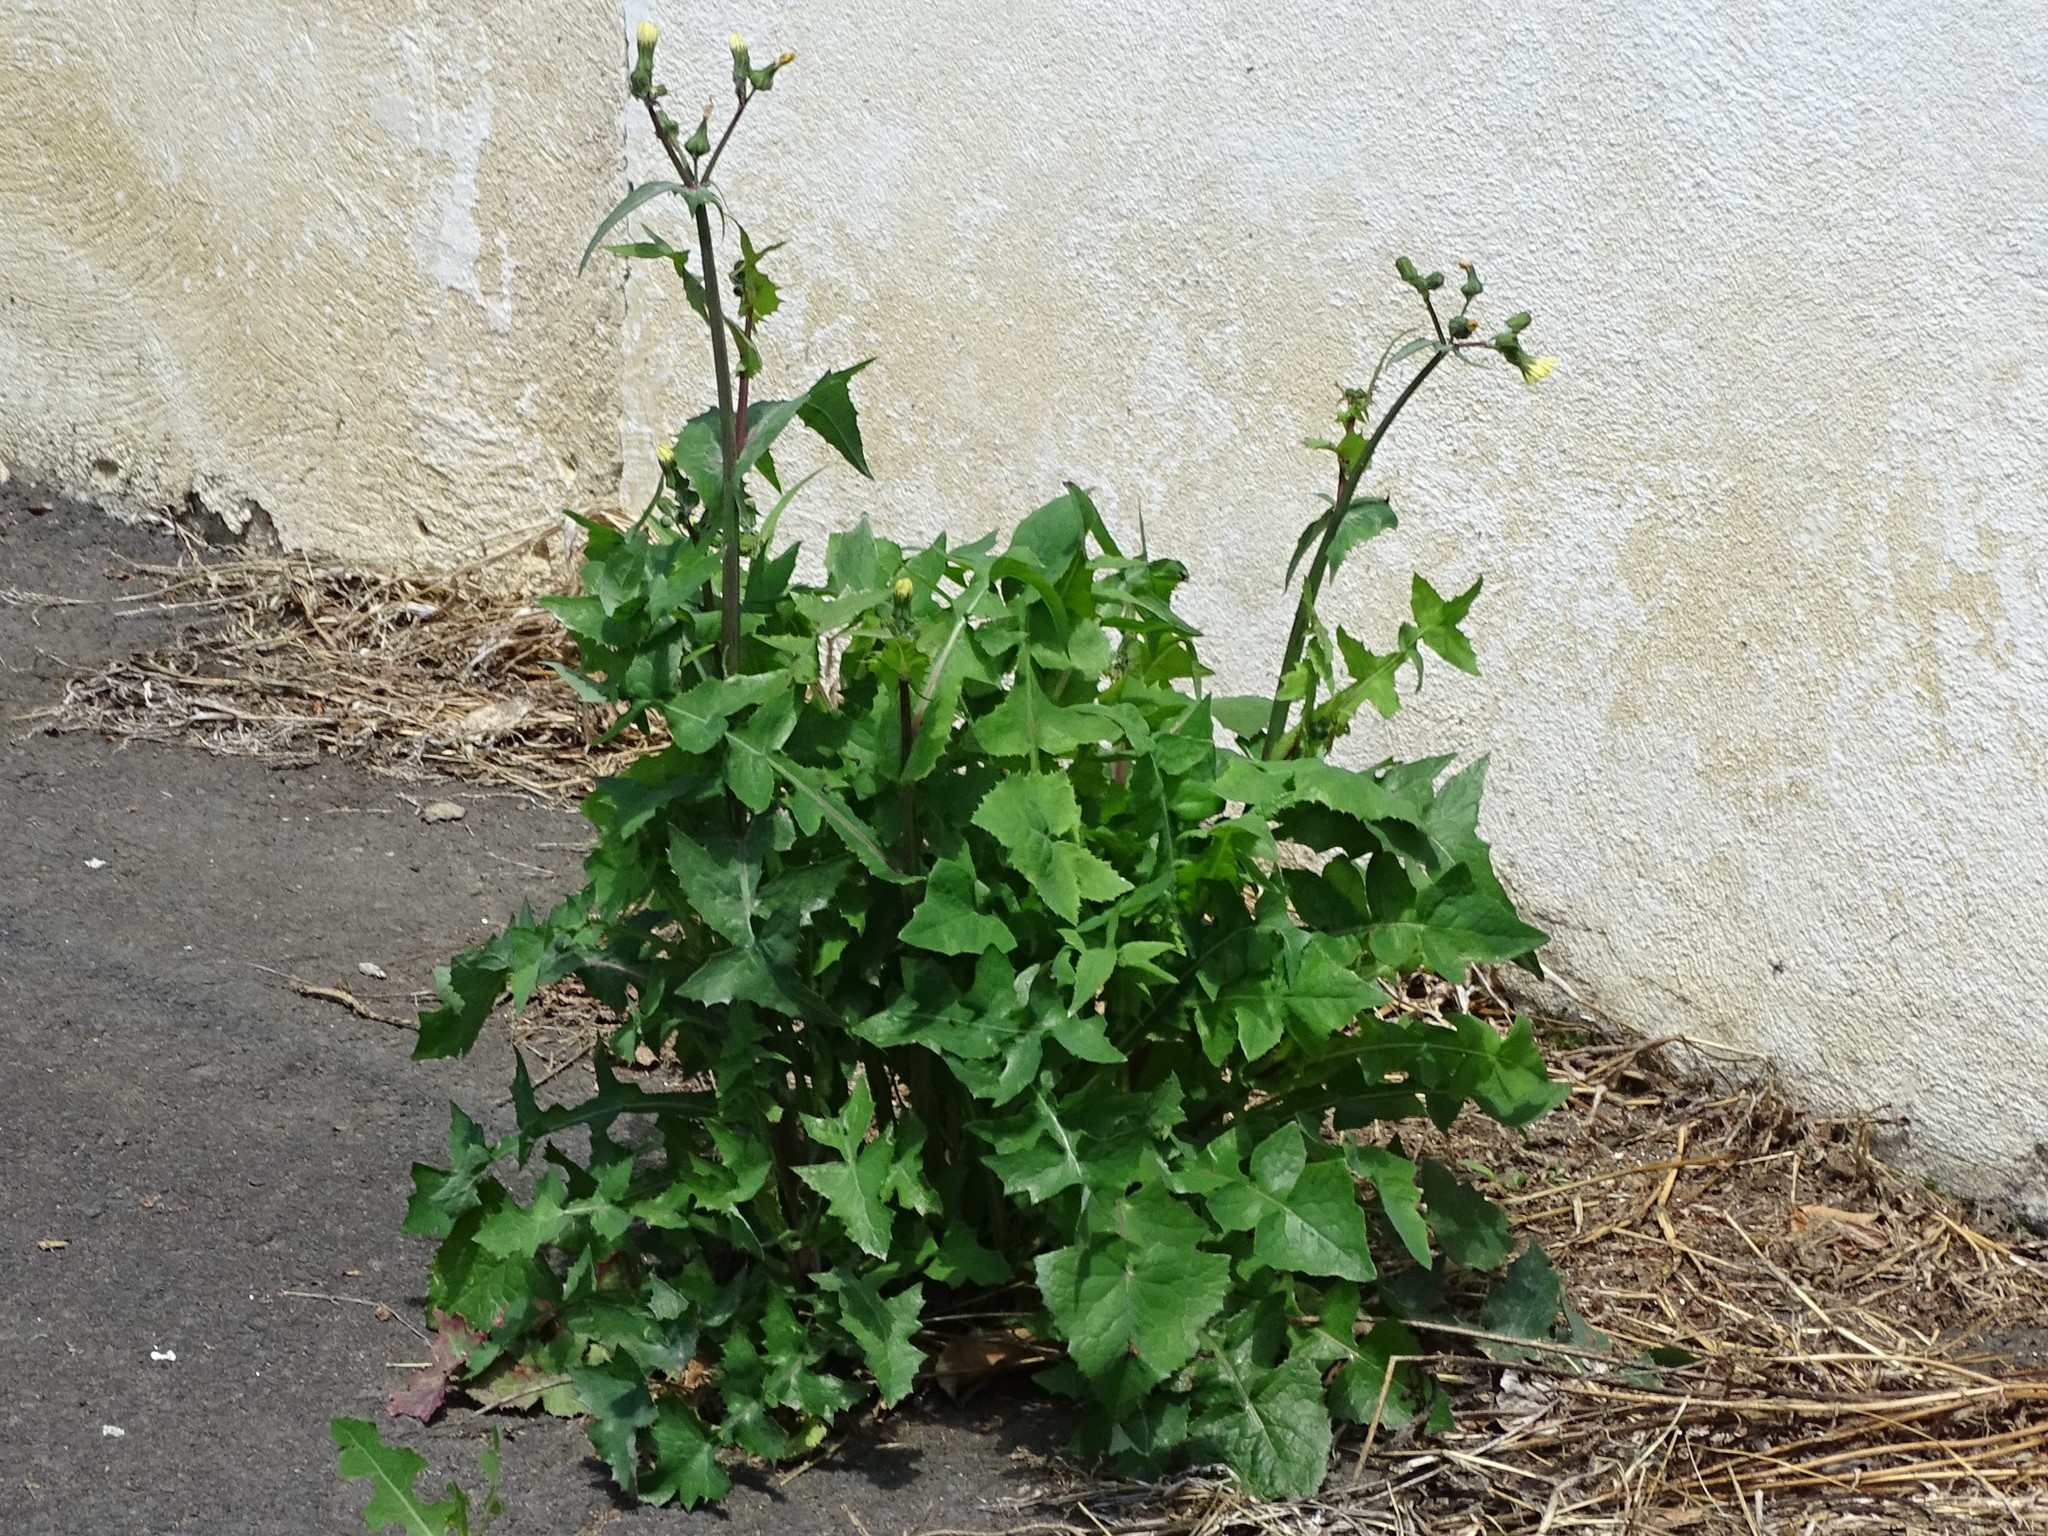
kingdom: Plantae
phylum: Tracheophyta
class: Magnoliopsida
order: Asterales
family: Asteraceae
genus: Sonchus
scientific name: Sonchus oleraceus
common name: Common sowthistle
